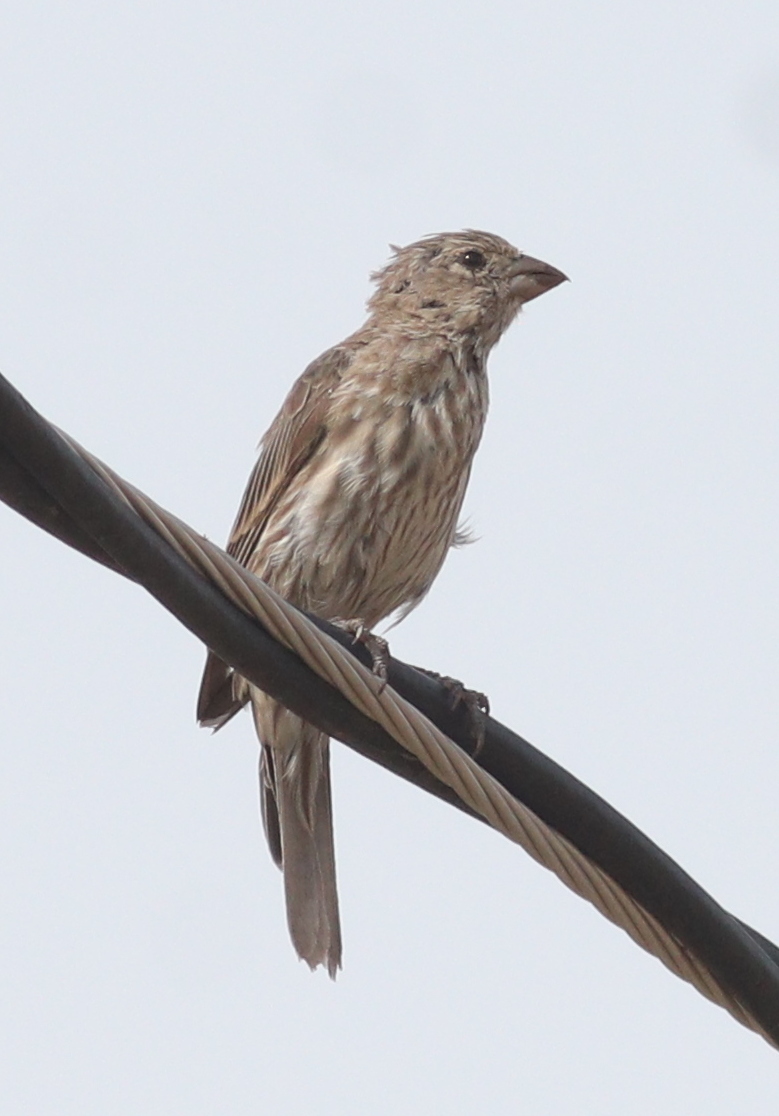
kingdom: Animalia
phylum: Chordata
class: Aves
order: Passeriformes
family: Fringillidae
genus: Haemorhous
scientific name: Haemorhous mexicanus
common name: House finch
